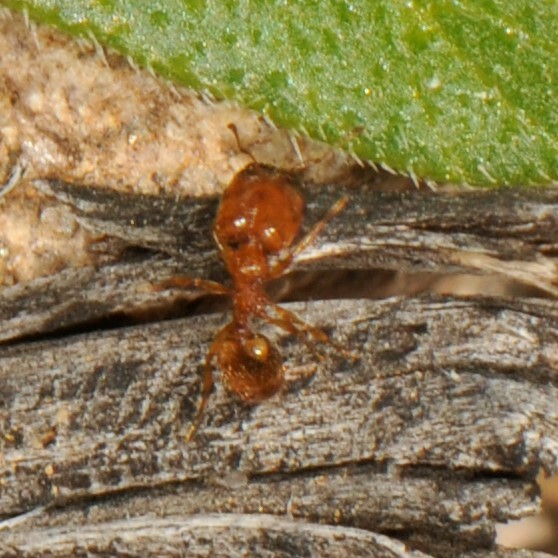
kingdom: Animalia
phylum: Arthropoda
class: Insecta
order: Hymenoptera
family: Formicidae
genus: Pheidole
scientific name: Pheidole
